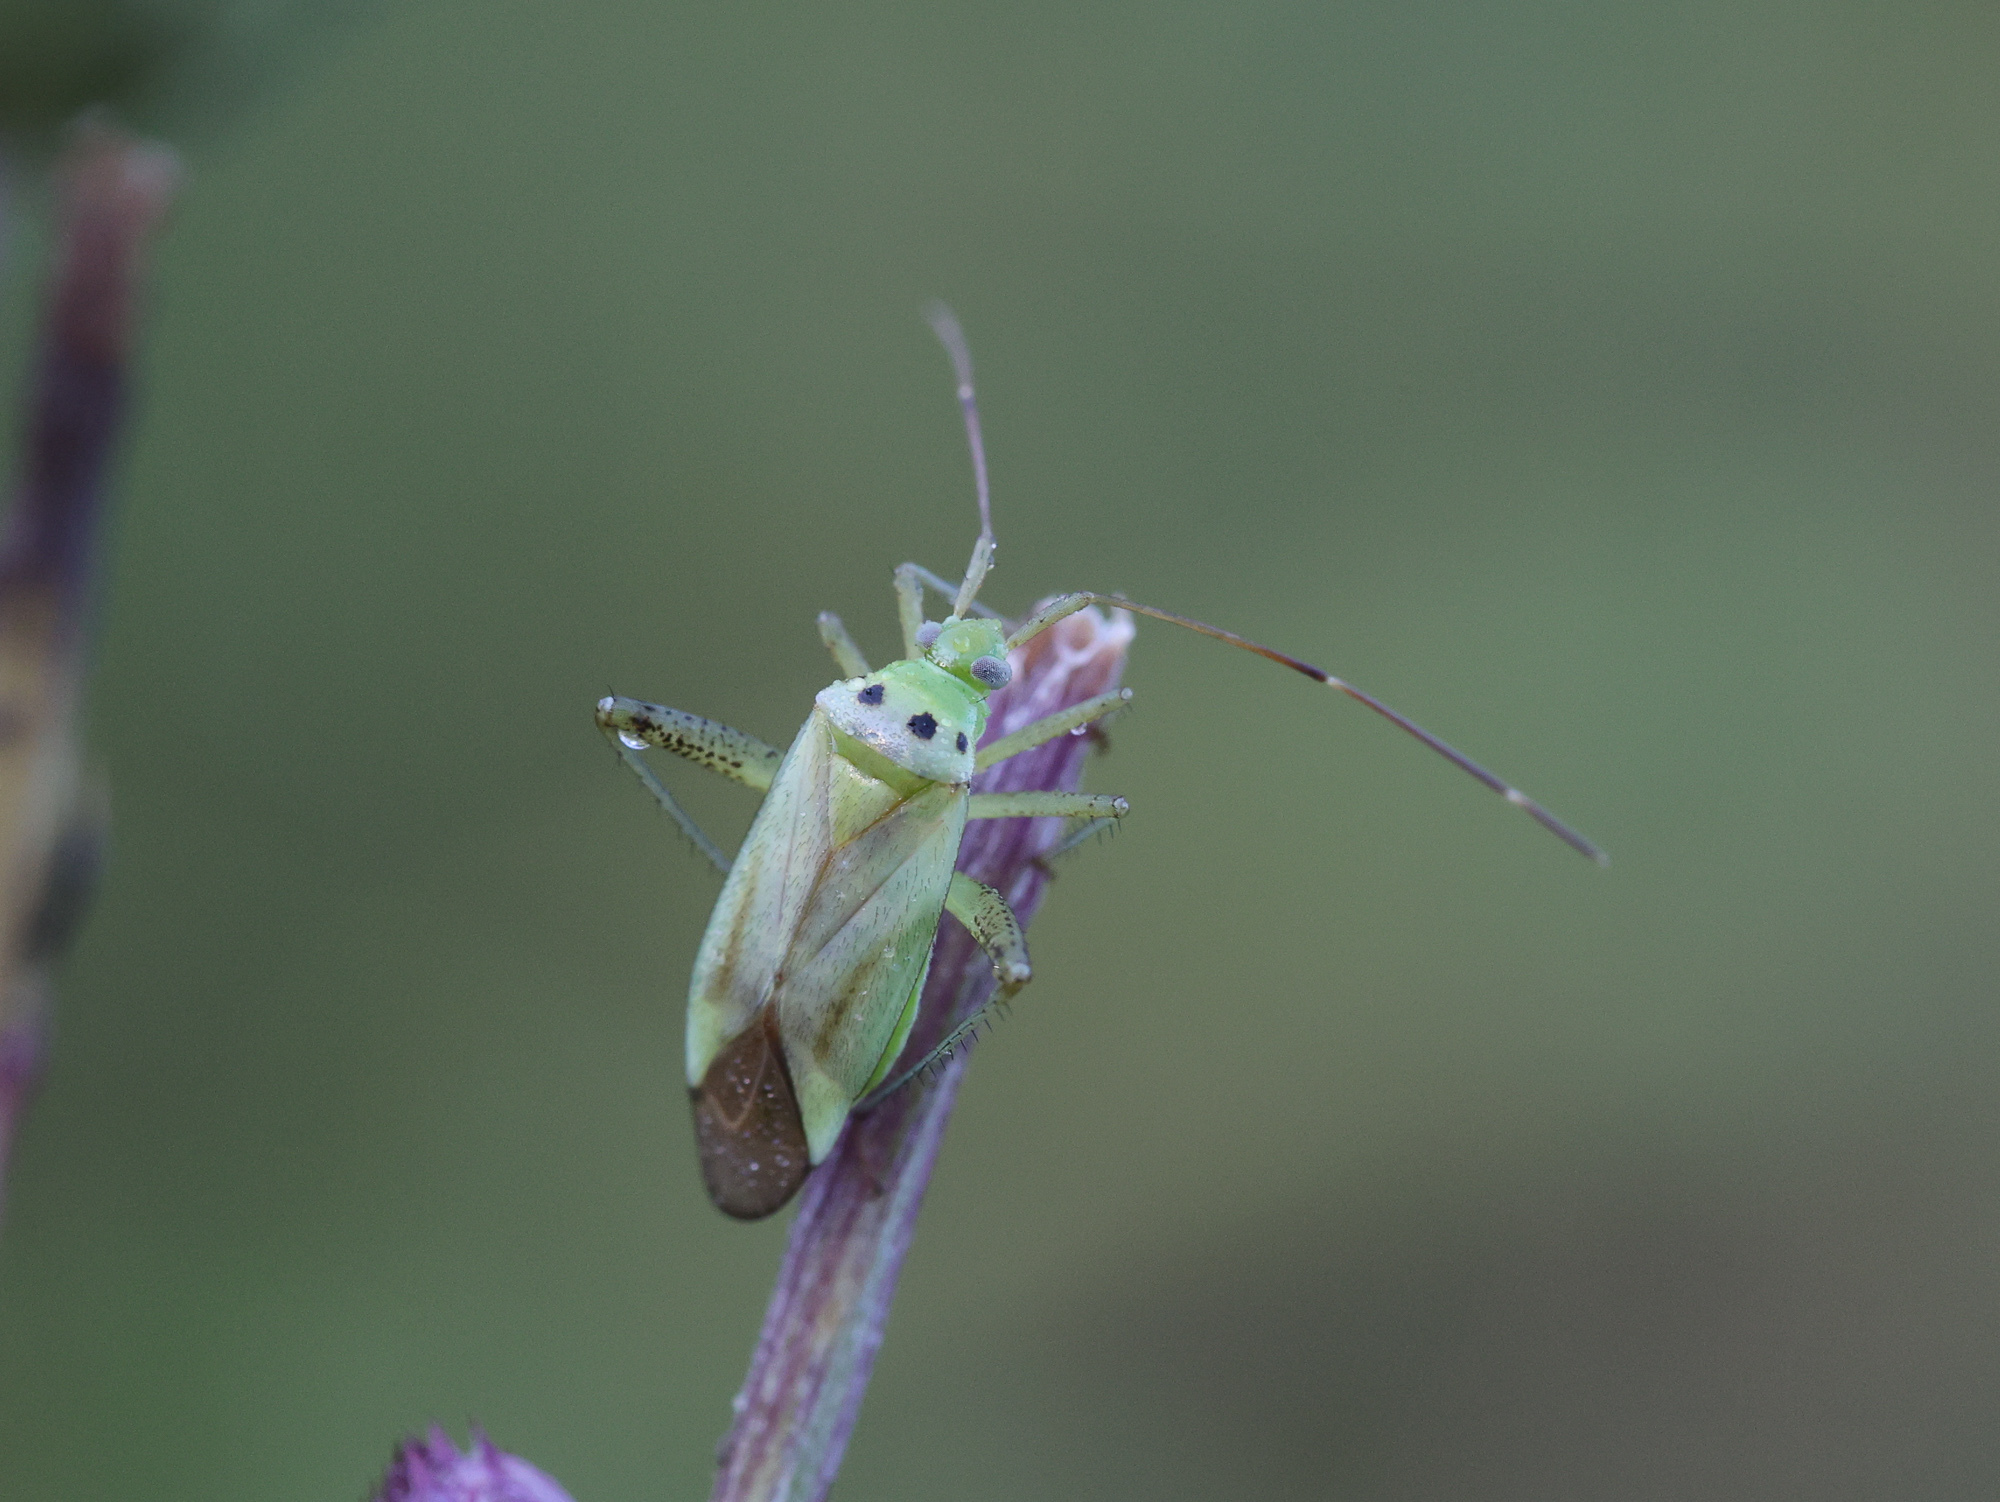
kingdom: Animalia
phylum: Arthropoda
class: Insecta
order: Hemiptera
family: Miridae
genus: Adelphocoris
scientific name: Adelphocoris quadripunctatus
